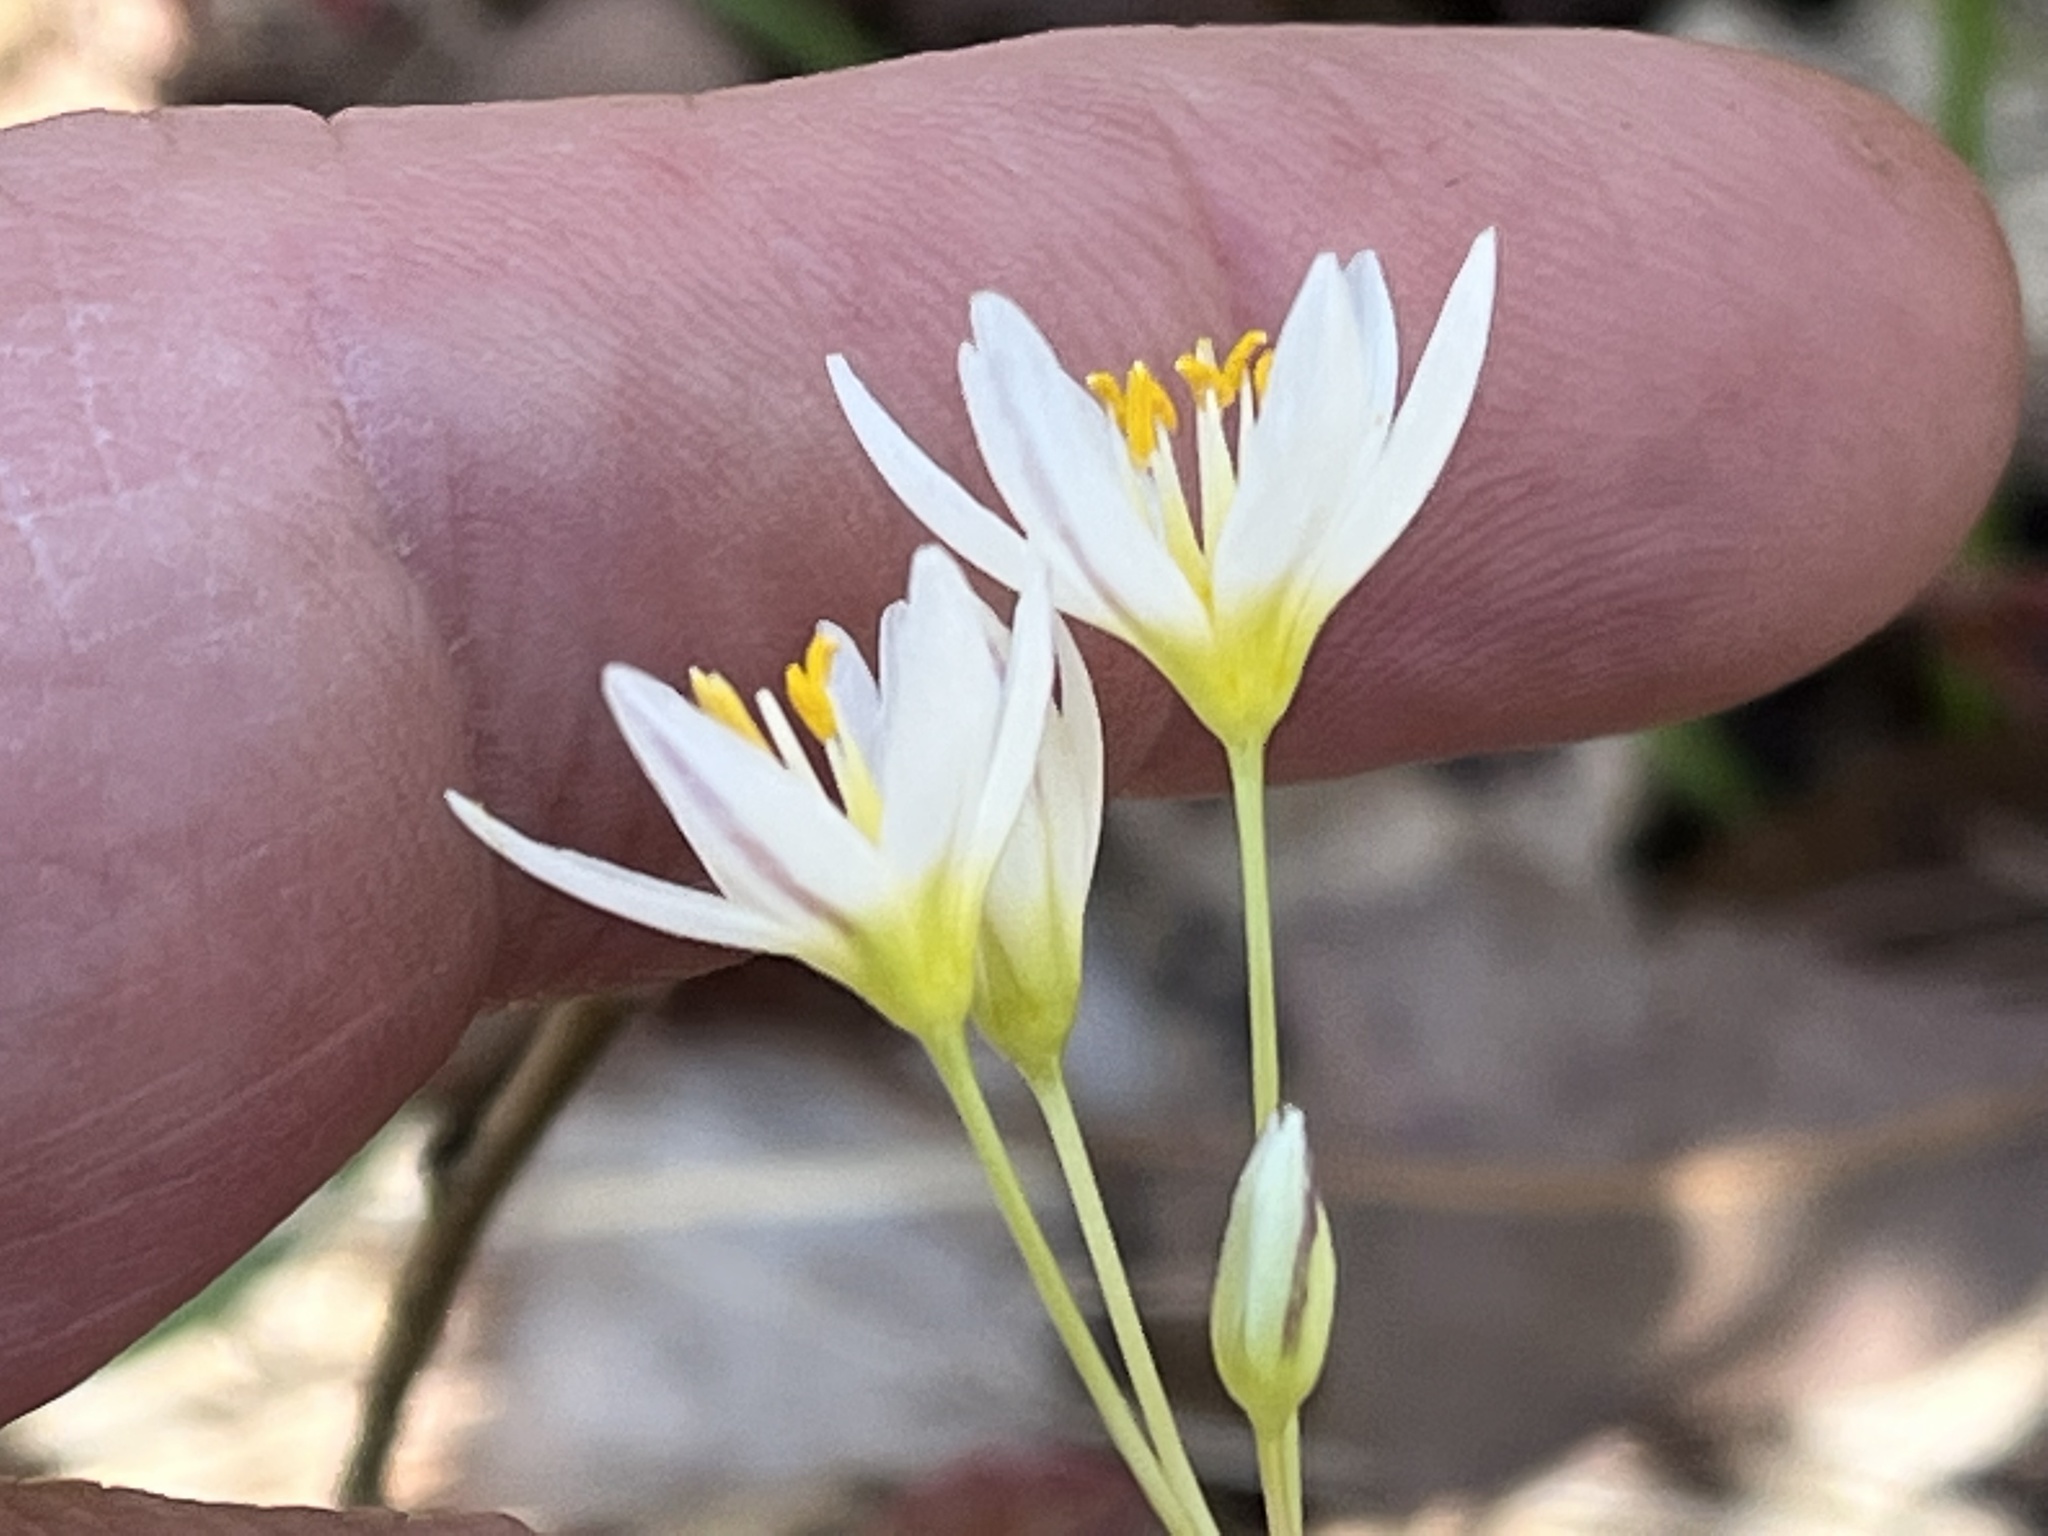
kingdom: Plantae
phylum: Tracheophyta
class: Liliopsida
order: Asparagales
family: Amaryllidaceae
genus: Nothoscordum
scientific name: Nothoscordum bivalve
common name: Crow-poison
